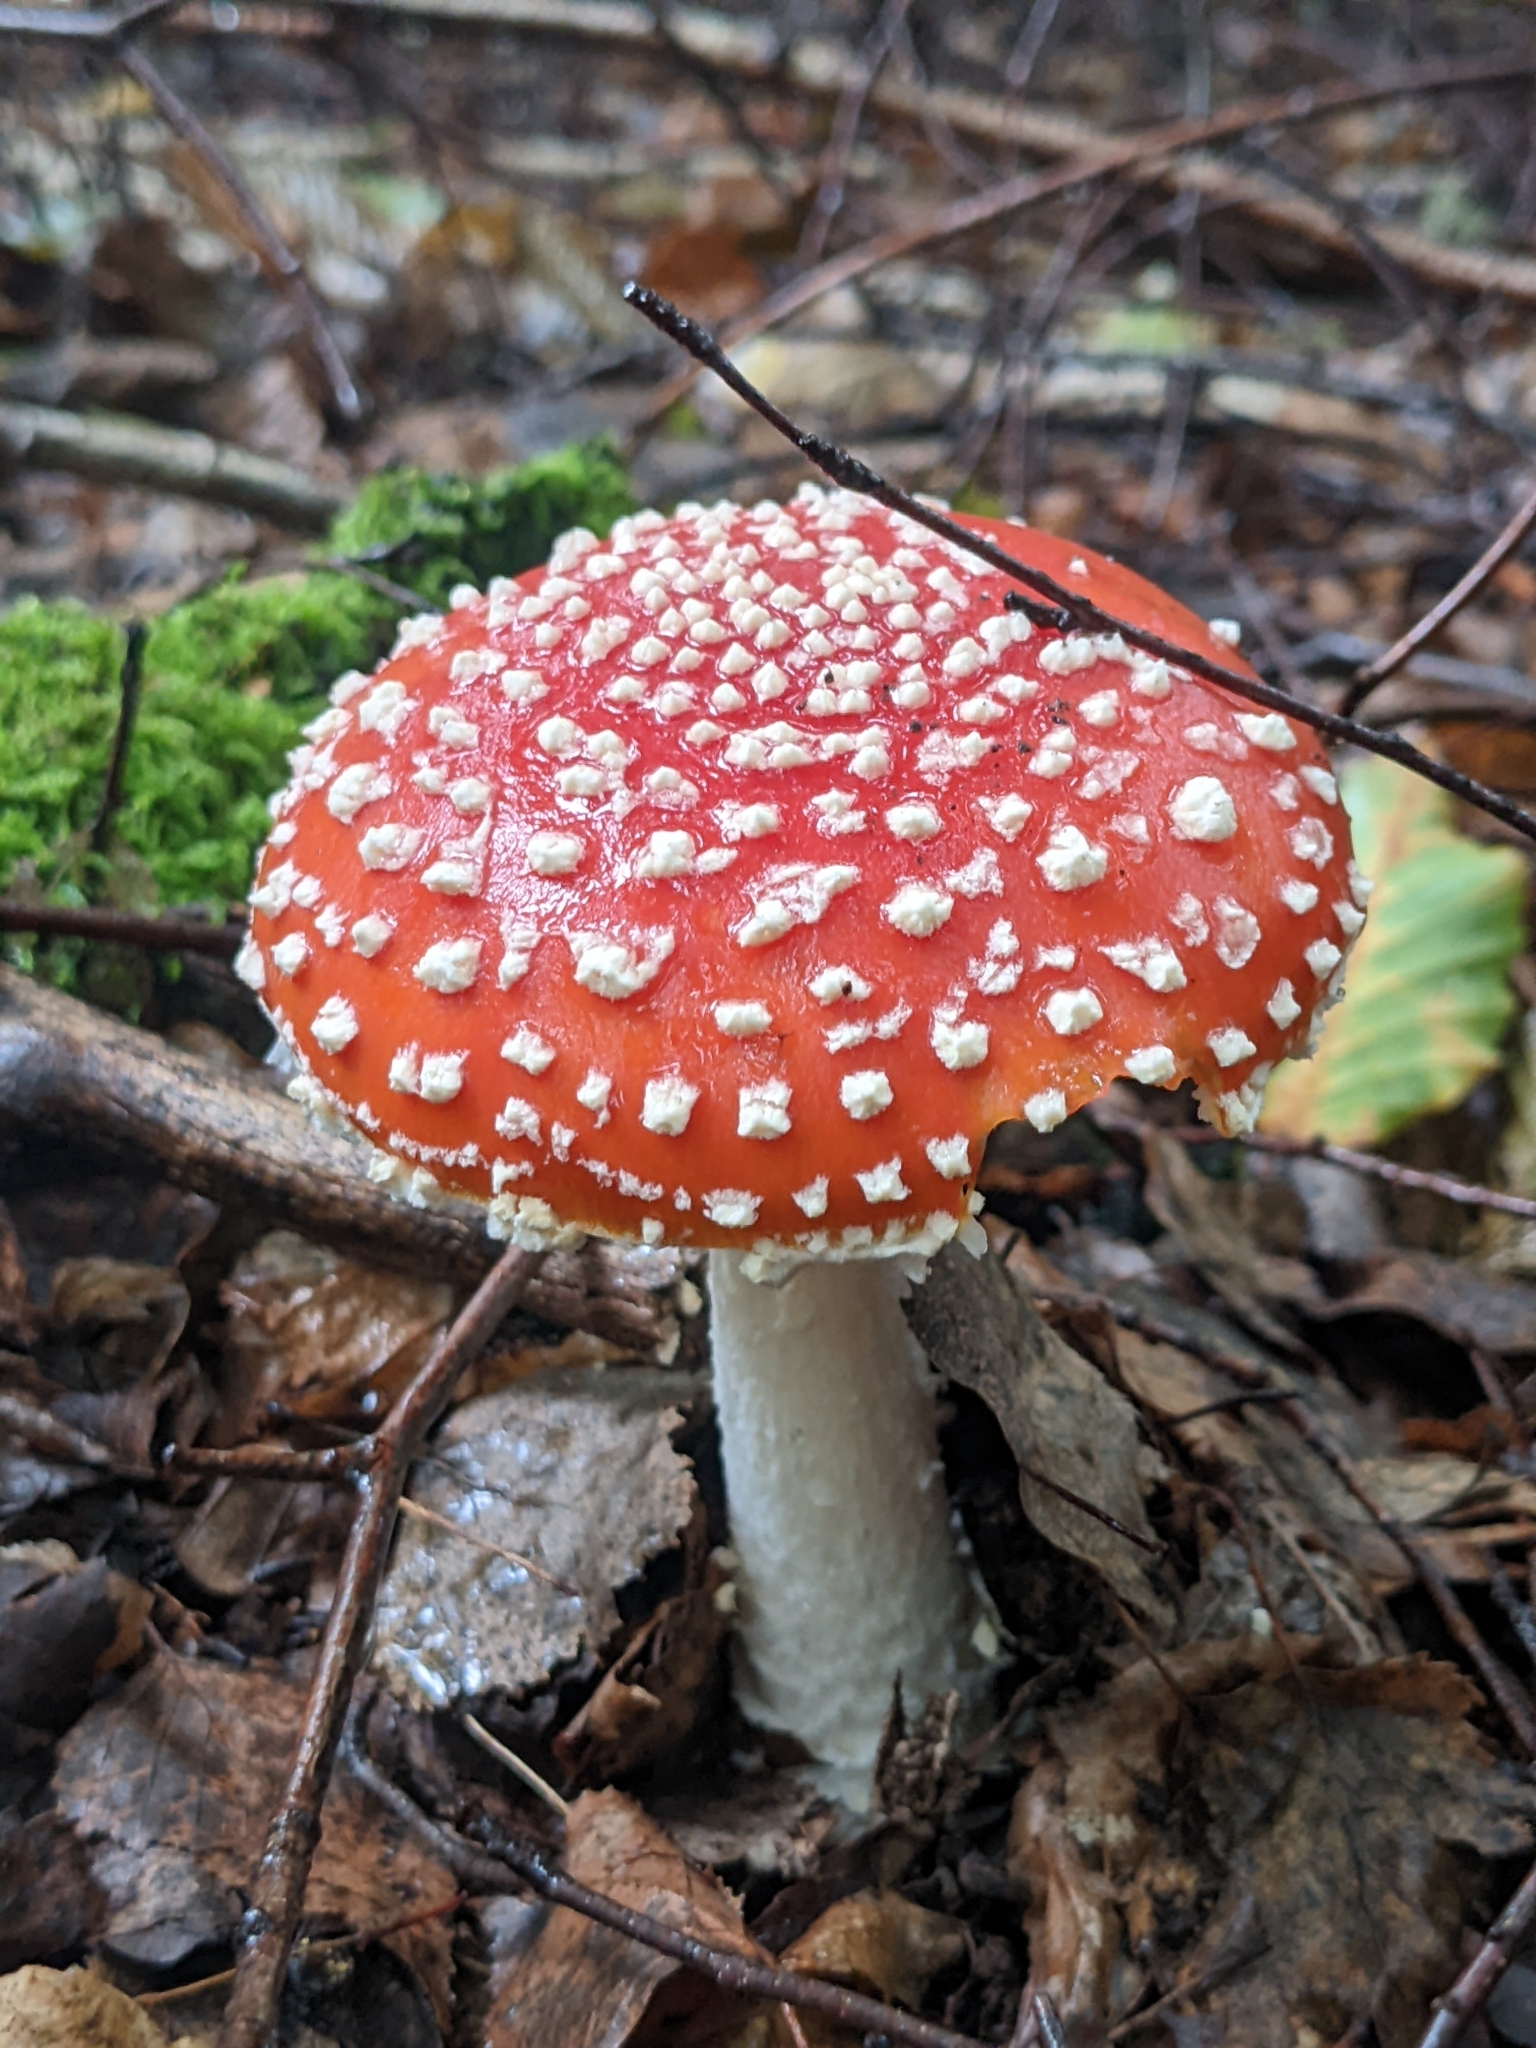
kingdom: Fungi
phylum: Basidiomycota
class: Agaricomycetes
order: Agaricales
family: Amanitaceae
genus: Amanita
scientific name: Amanita muscaria
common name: Fly agaric
